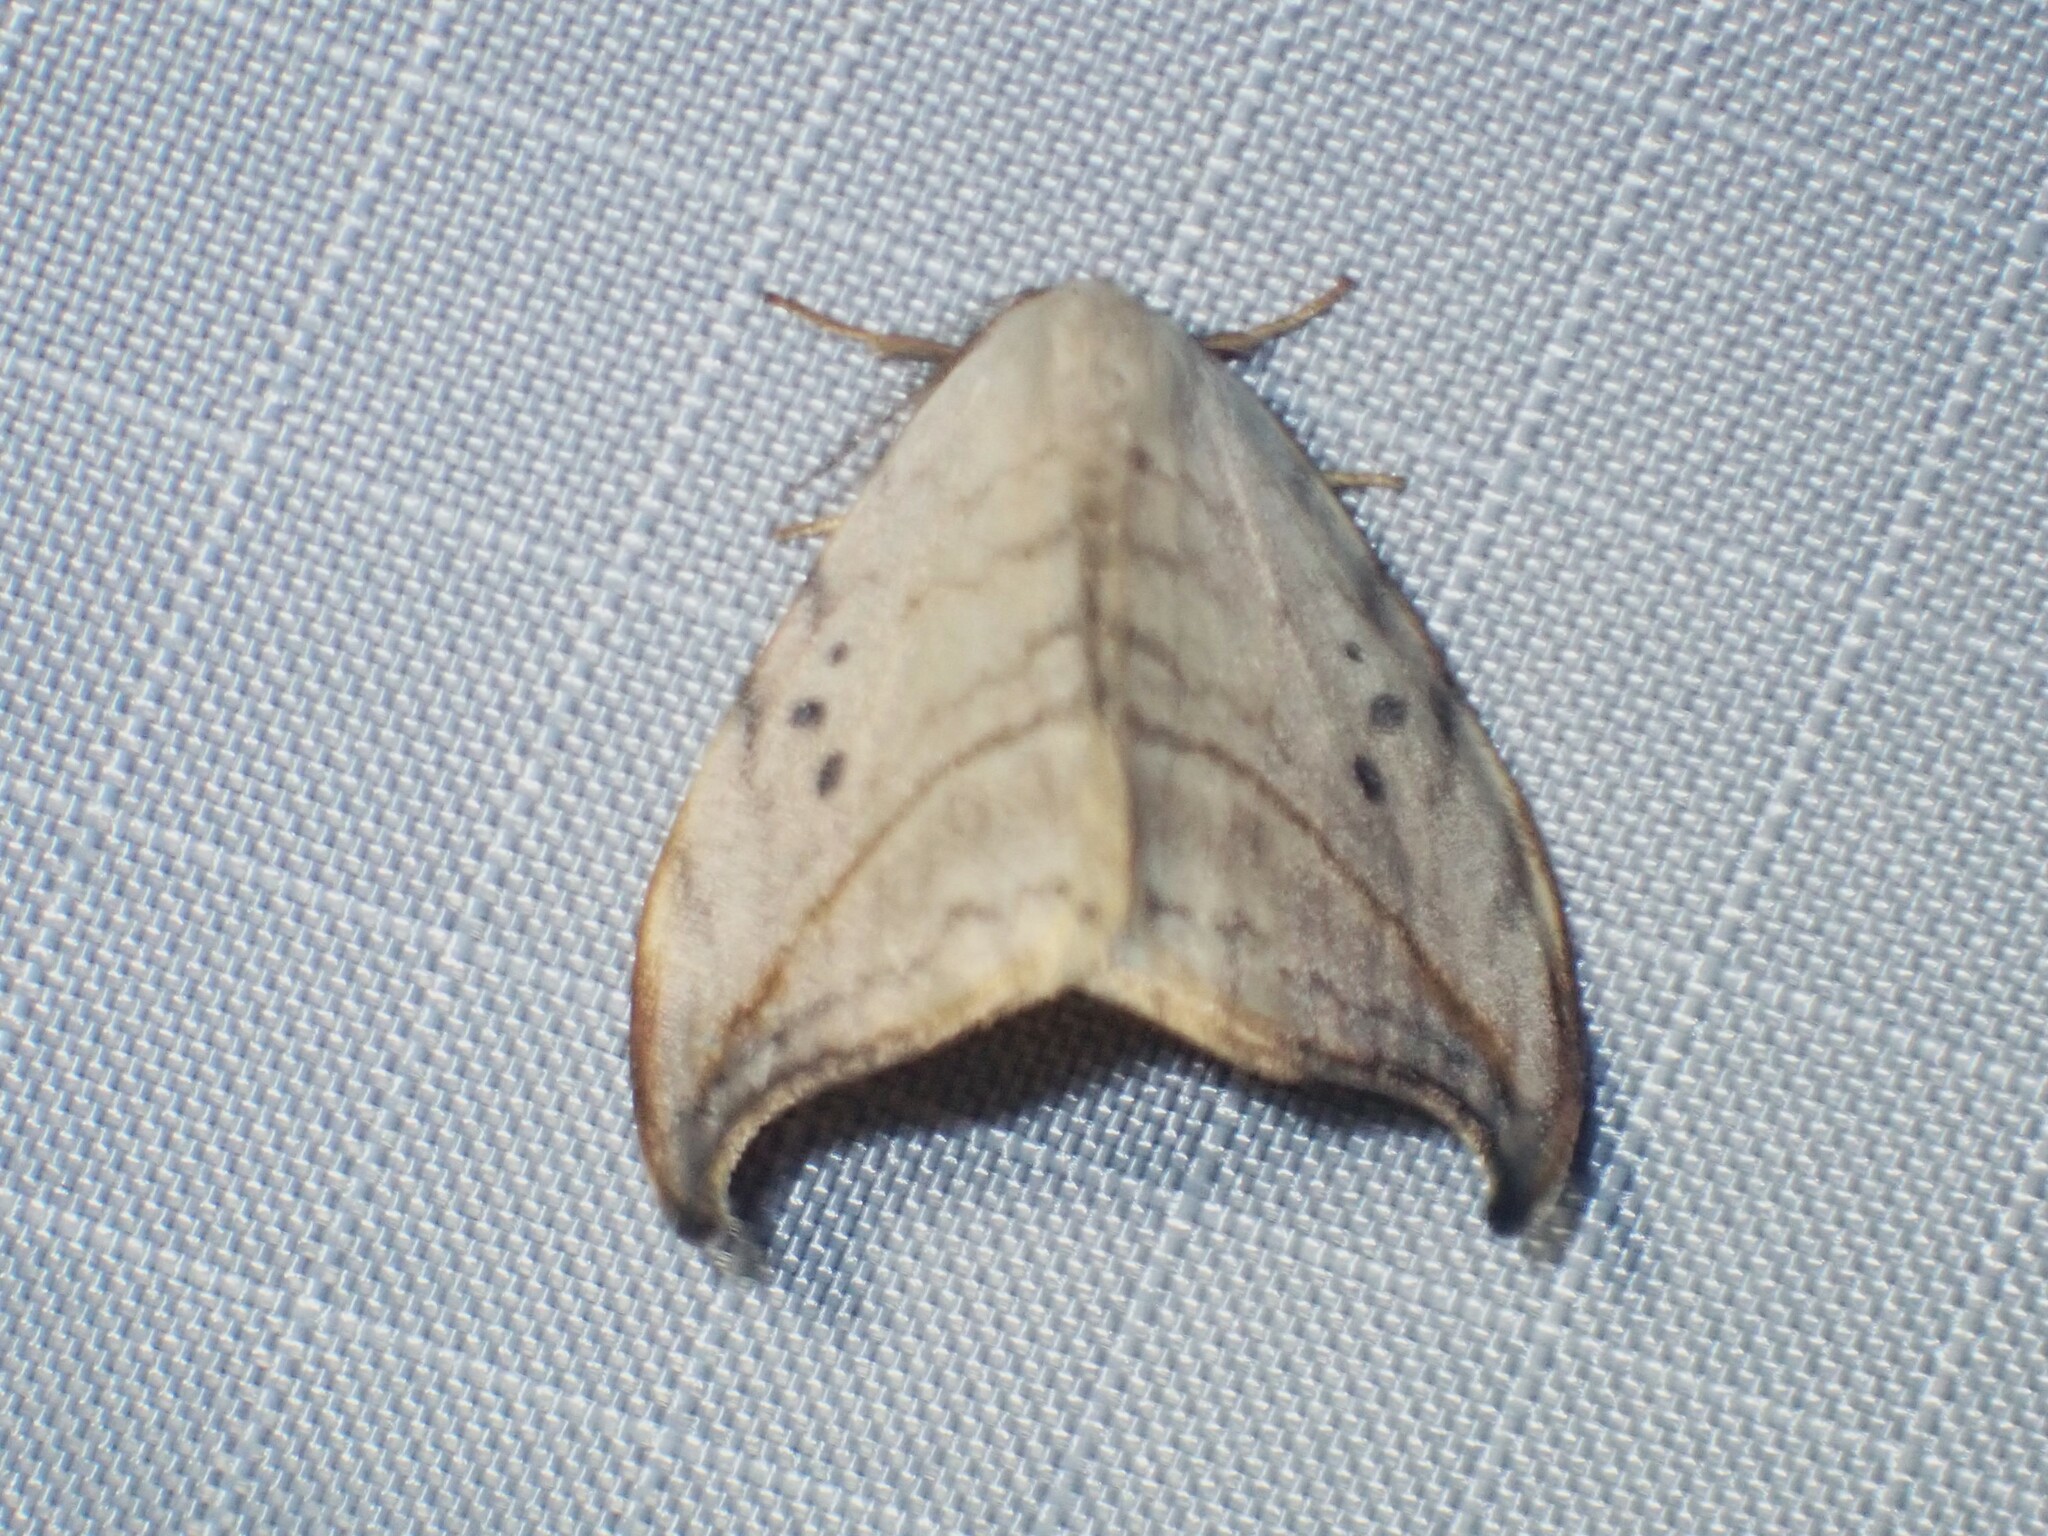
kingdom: Animalia
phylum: Arthropoda
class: Insecta
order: Lepidoptera
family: Drepanidae
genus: Drepana
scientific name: Drepana arcuata
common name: Arched hooktip moth
